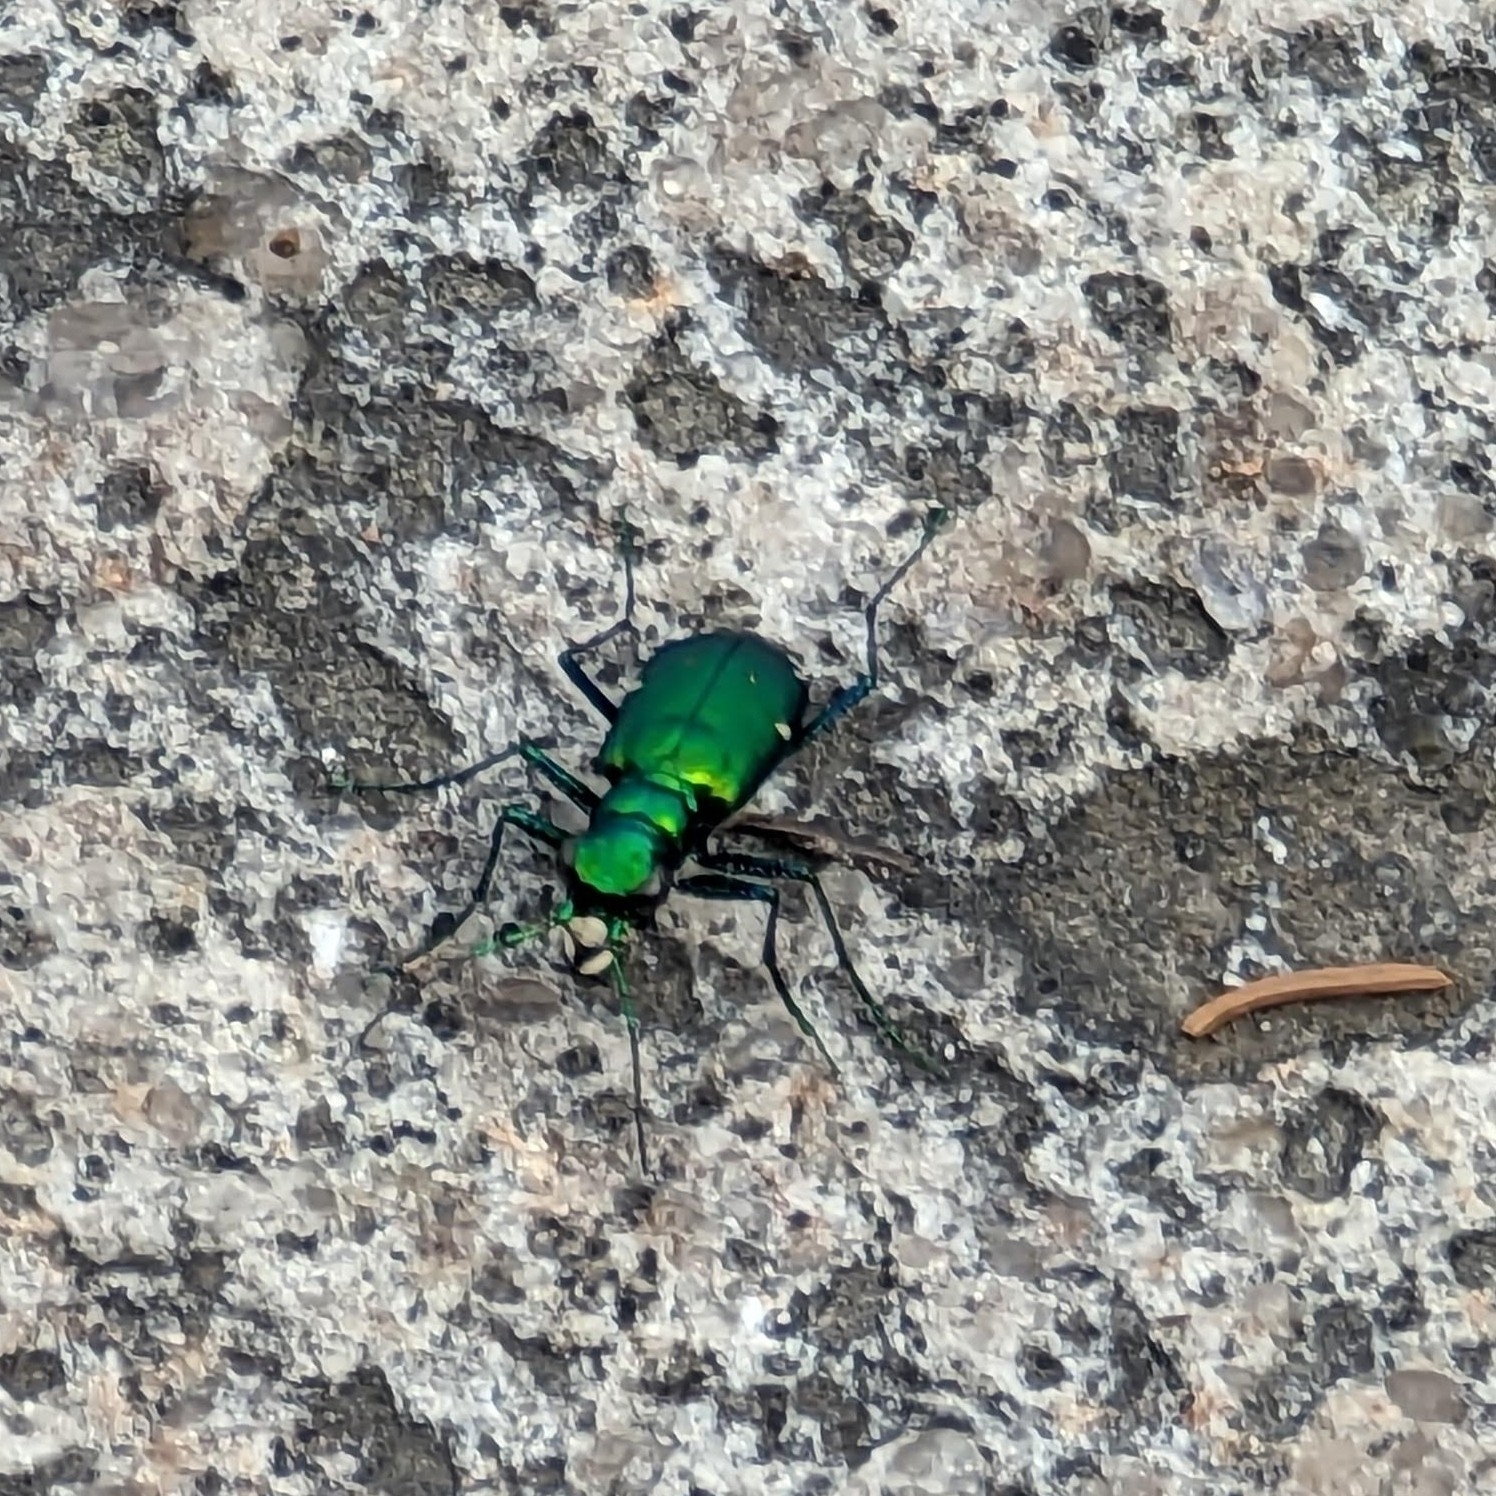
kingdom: Animalia
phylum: Arthropoda
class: Insecta
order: Coleoptera
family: Carabidae
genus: Cicindela
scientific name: Cicindela sexguttata
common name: Six-spotted tiger beetle
